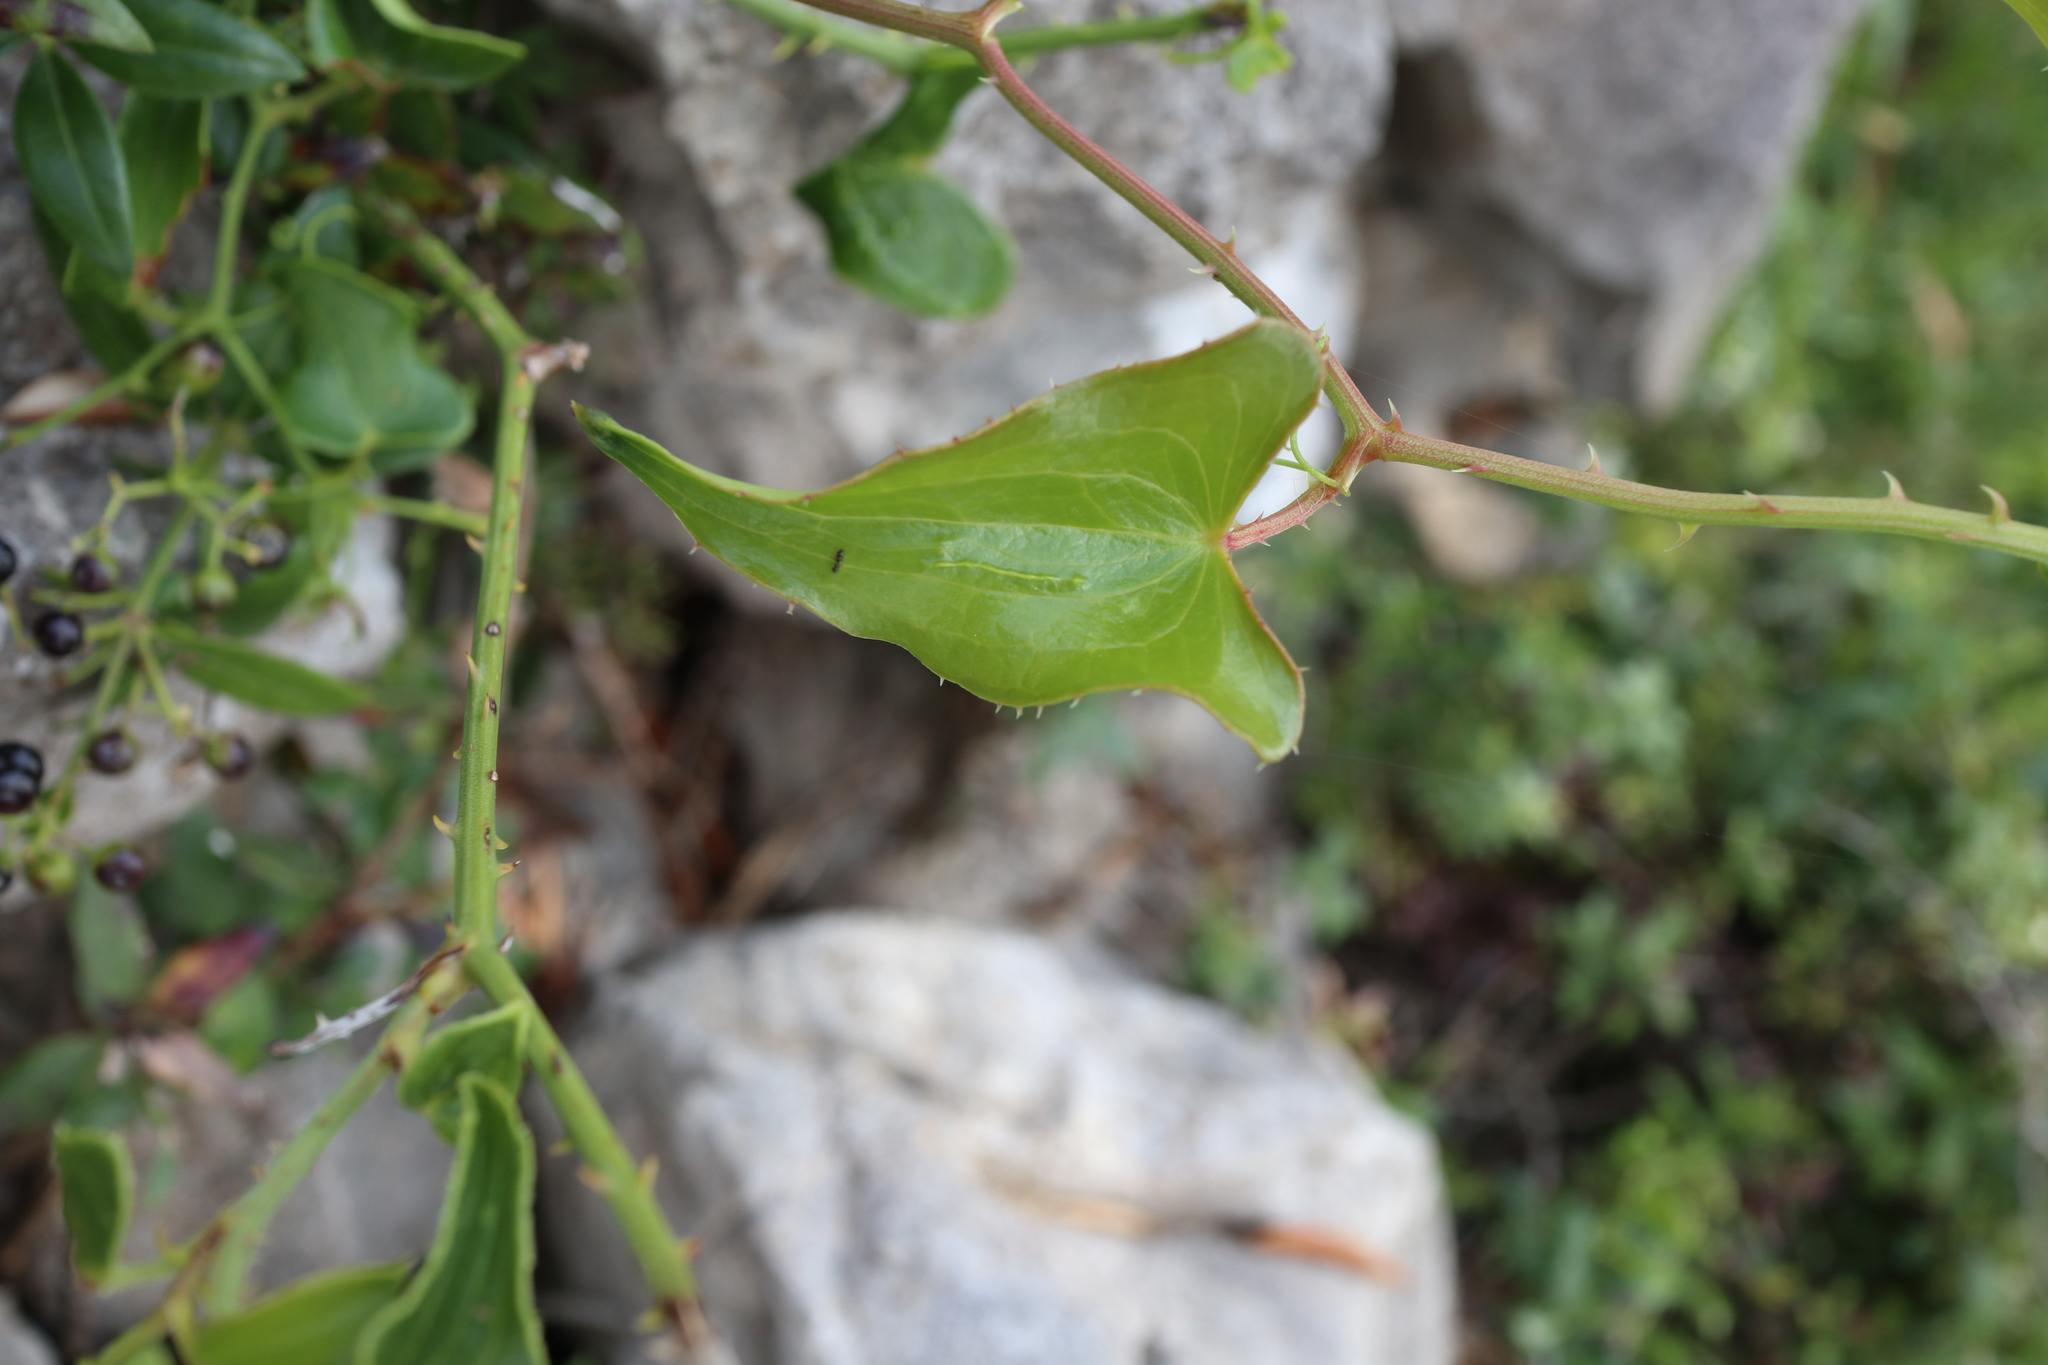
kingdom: Plantae
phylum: Tracheophyta
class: Liliopsida
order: Liliales
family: Smilacaceae
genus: Smilax
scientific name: Smilax aspera
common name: Common smilax
